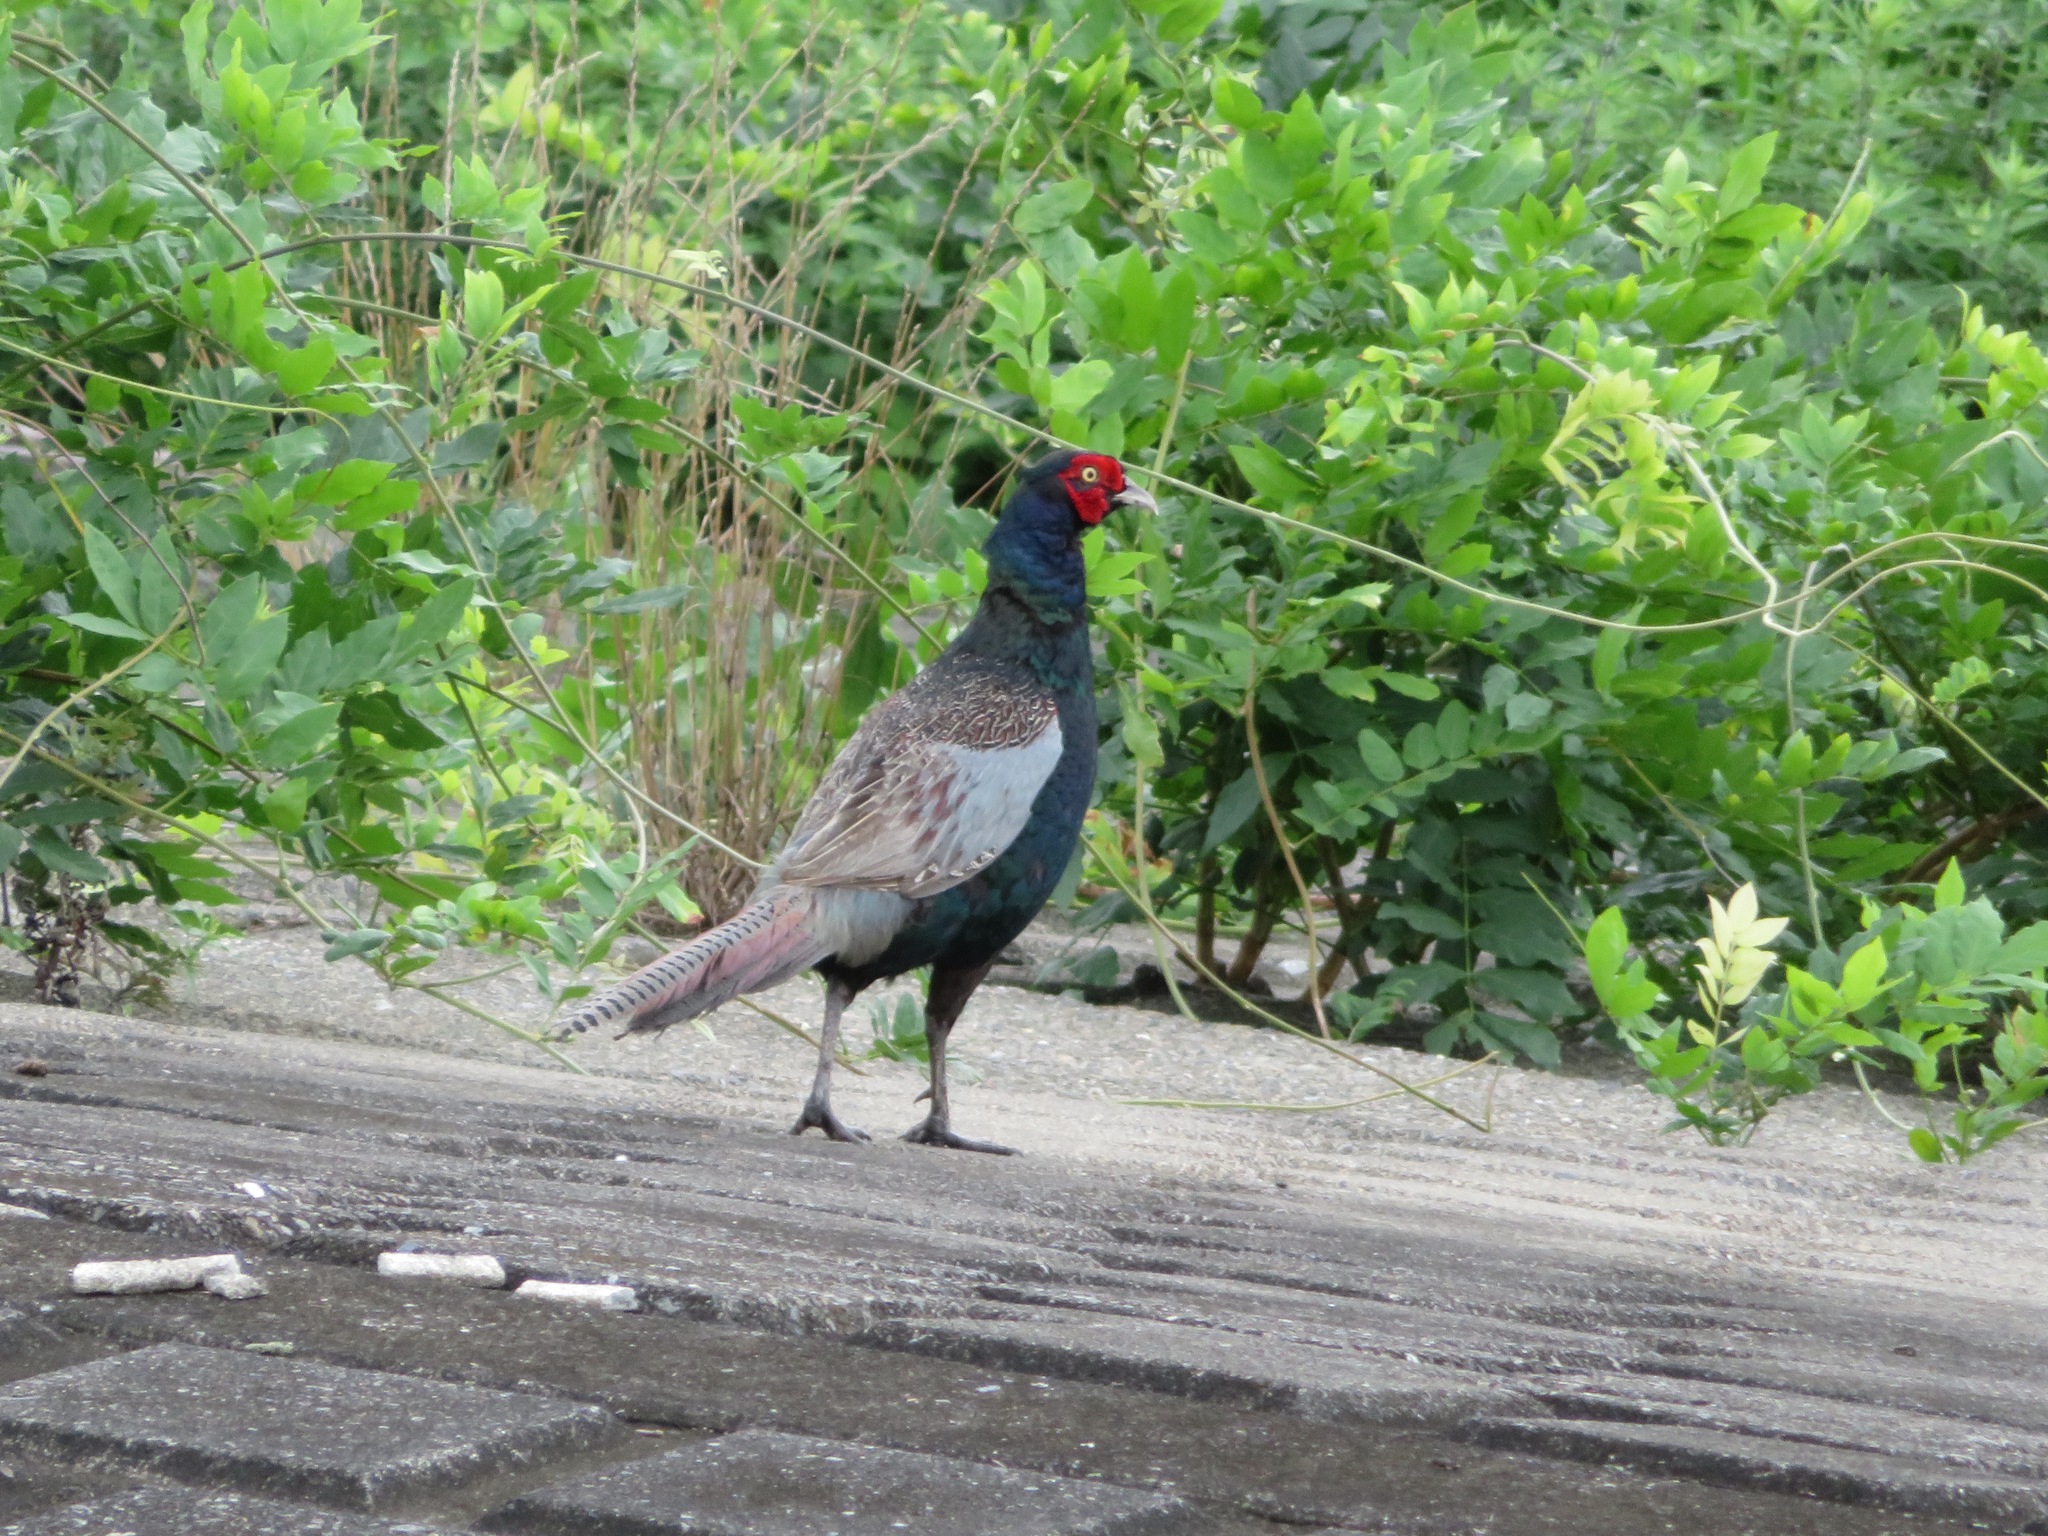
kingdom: Animalia
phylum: Chordata
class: Aves
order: Galliformes
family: Phasianidae
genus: Phasianus
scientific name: Phasianus versicolor
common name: Green pheasant
